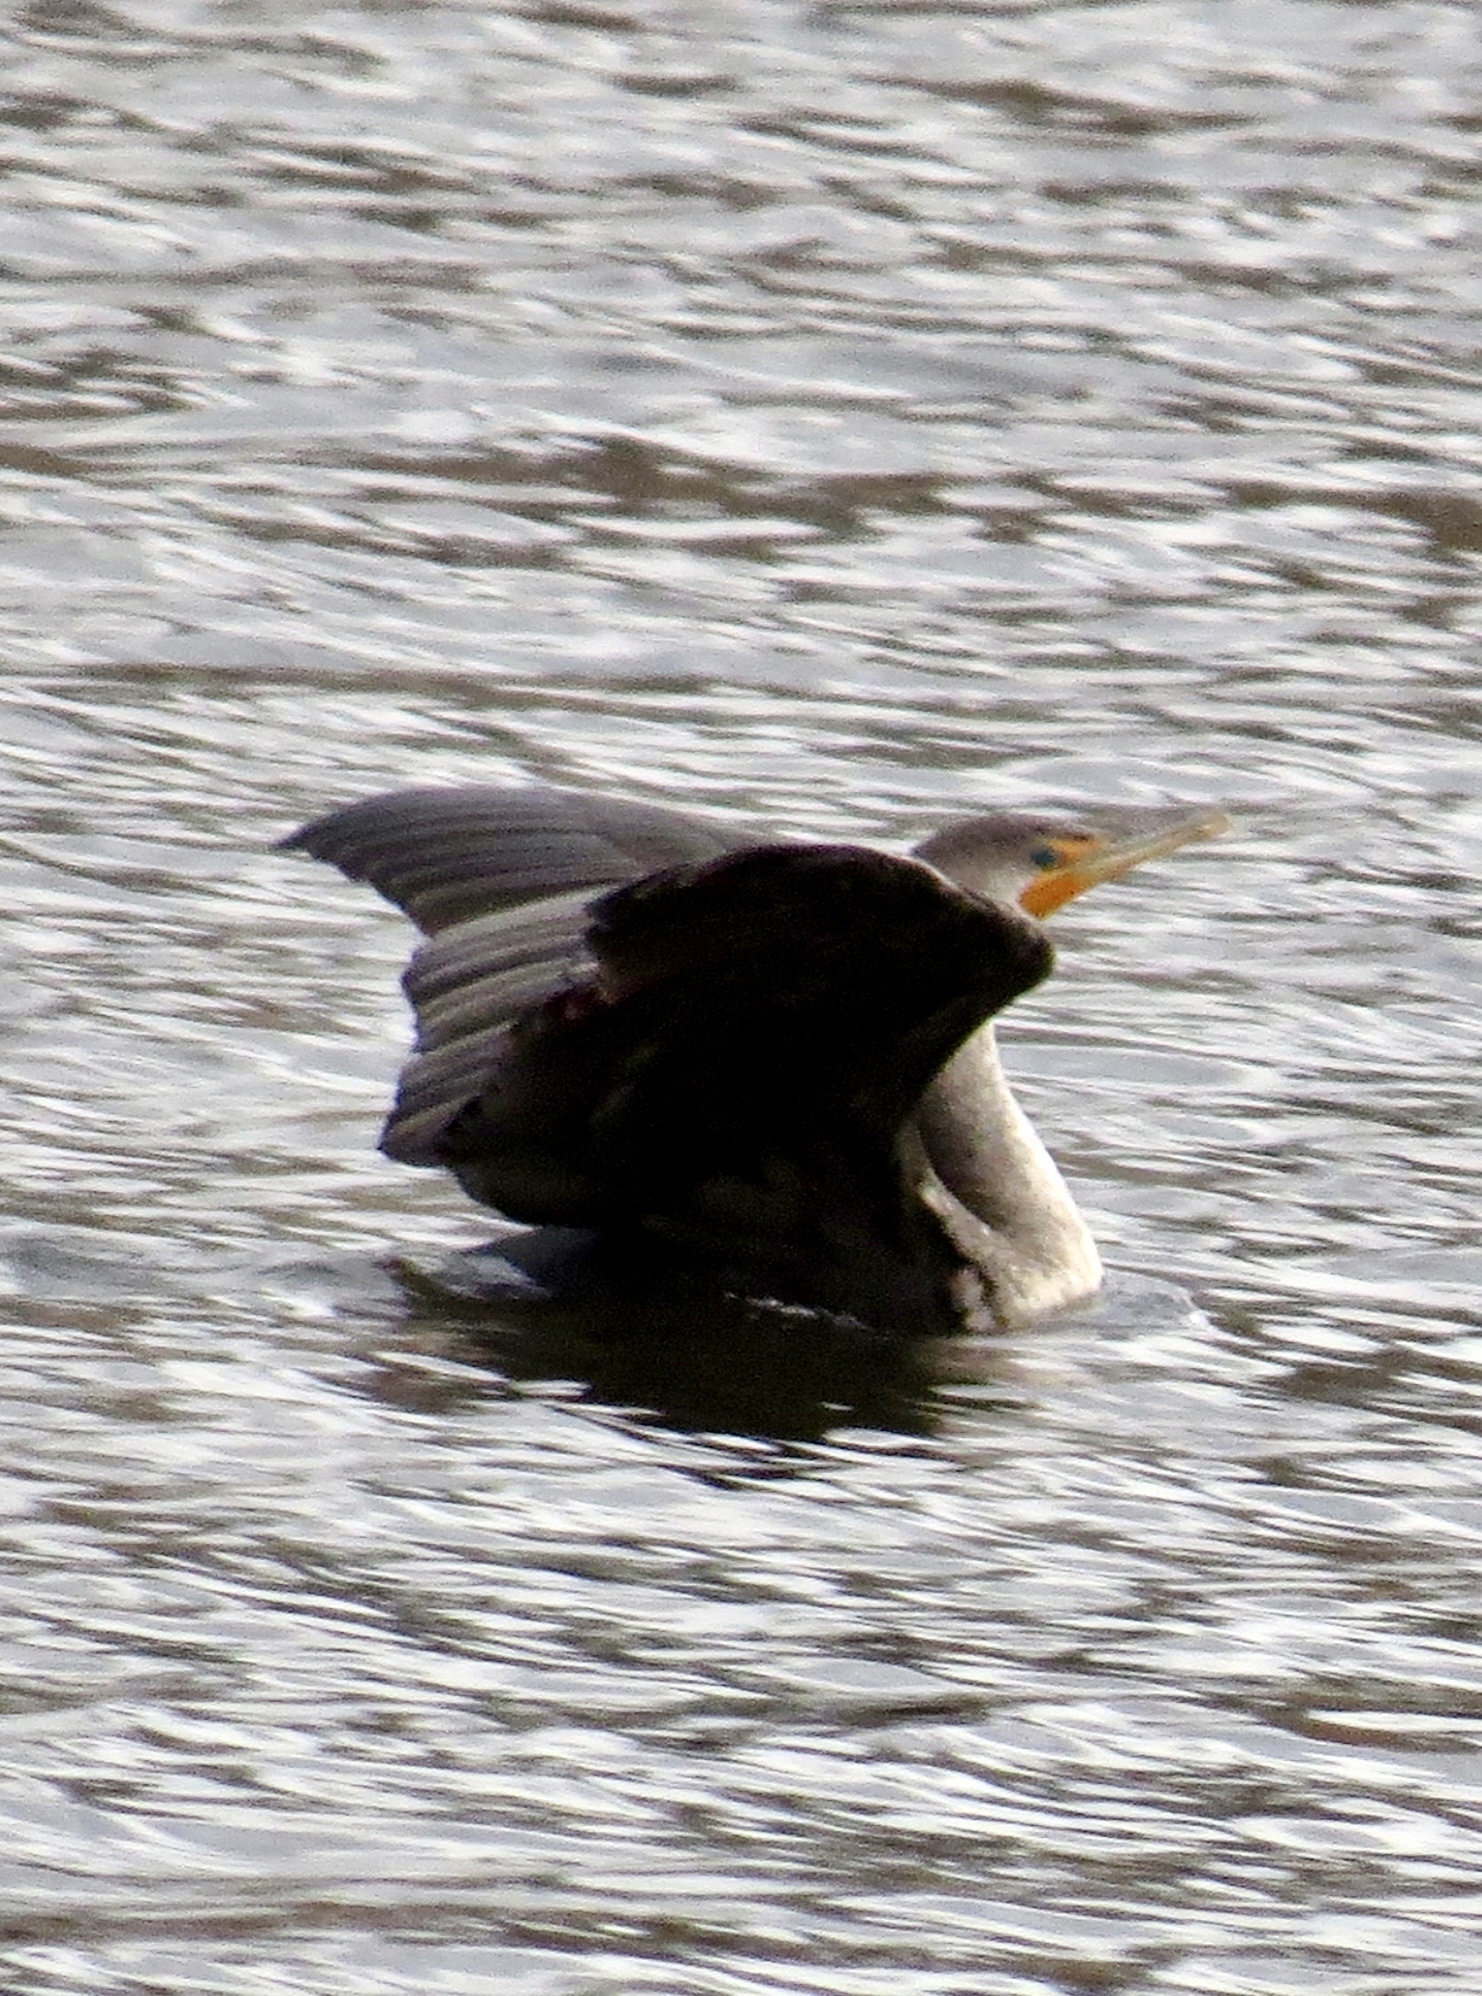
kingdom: Animalia
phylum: Chordata
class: Aves
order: Suliformes
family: Phalacrocoracidae
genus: Phalacrocorax
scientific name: Phalacrocorax auritus
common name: Double-crested cormorant
